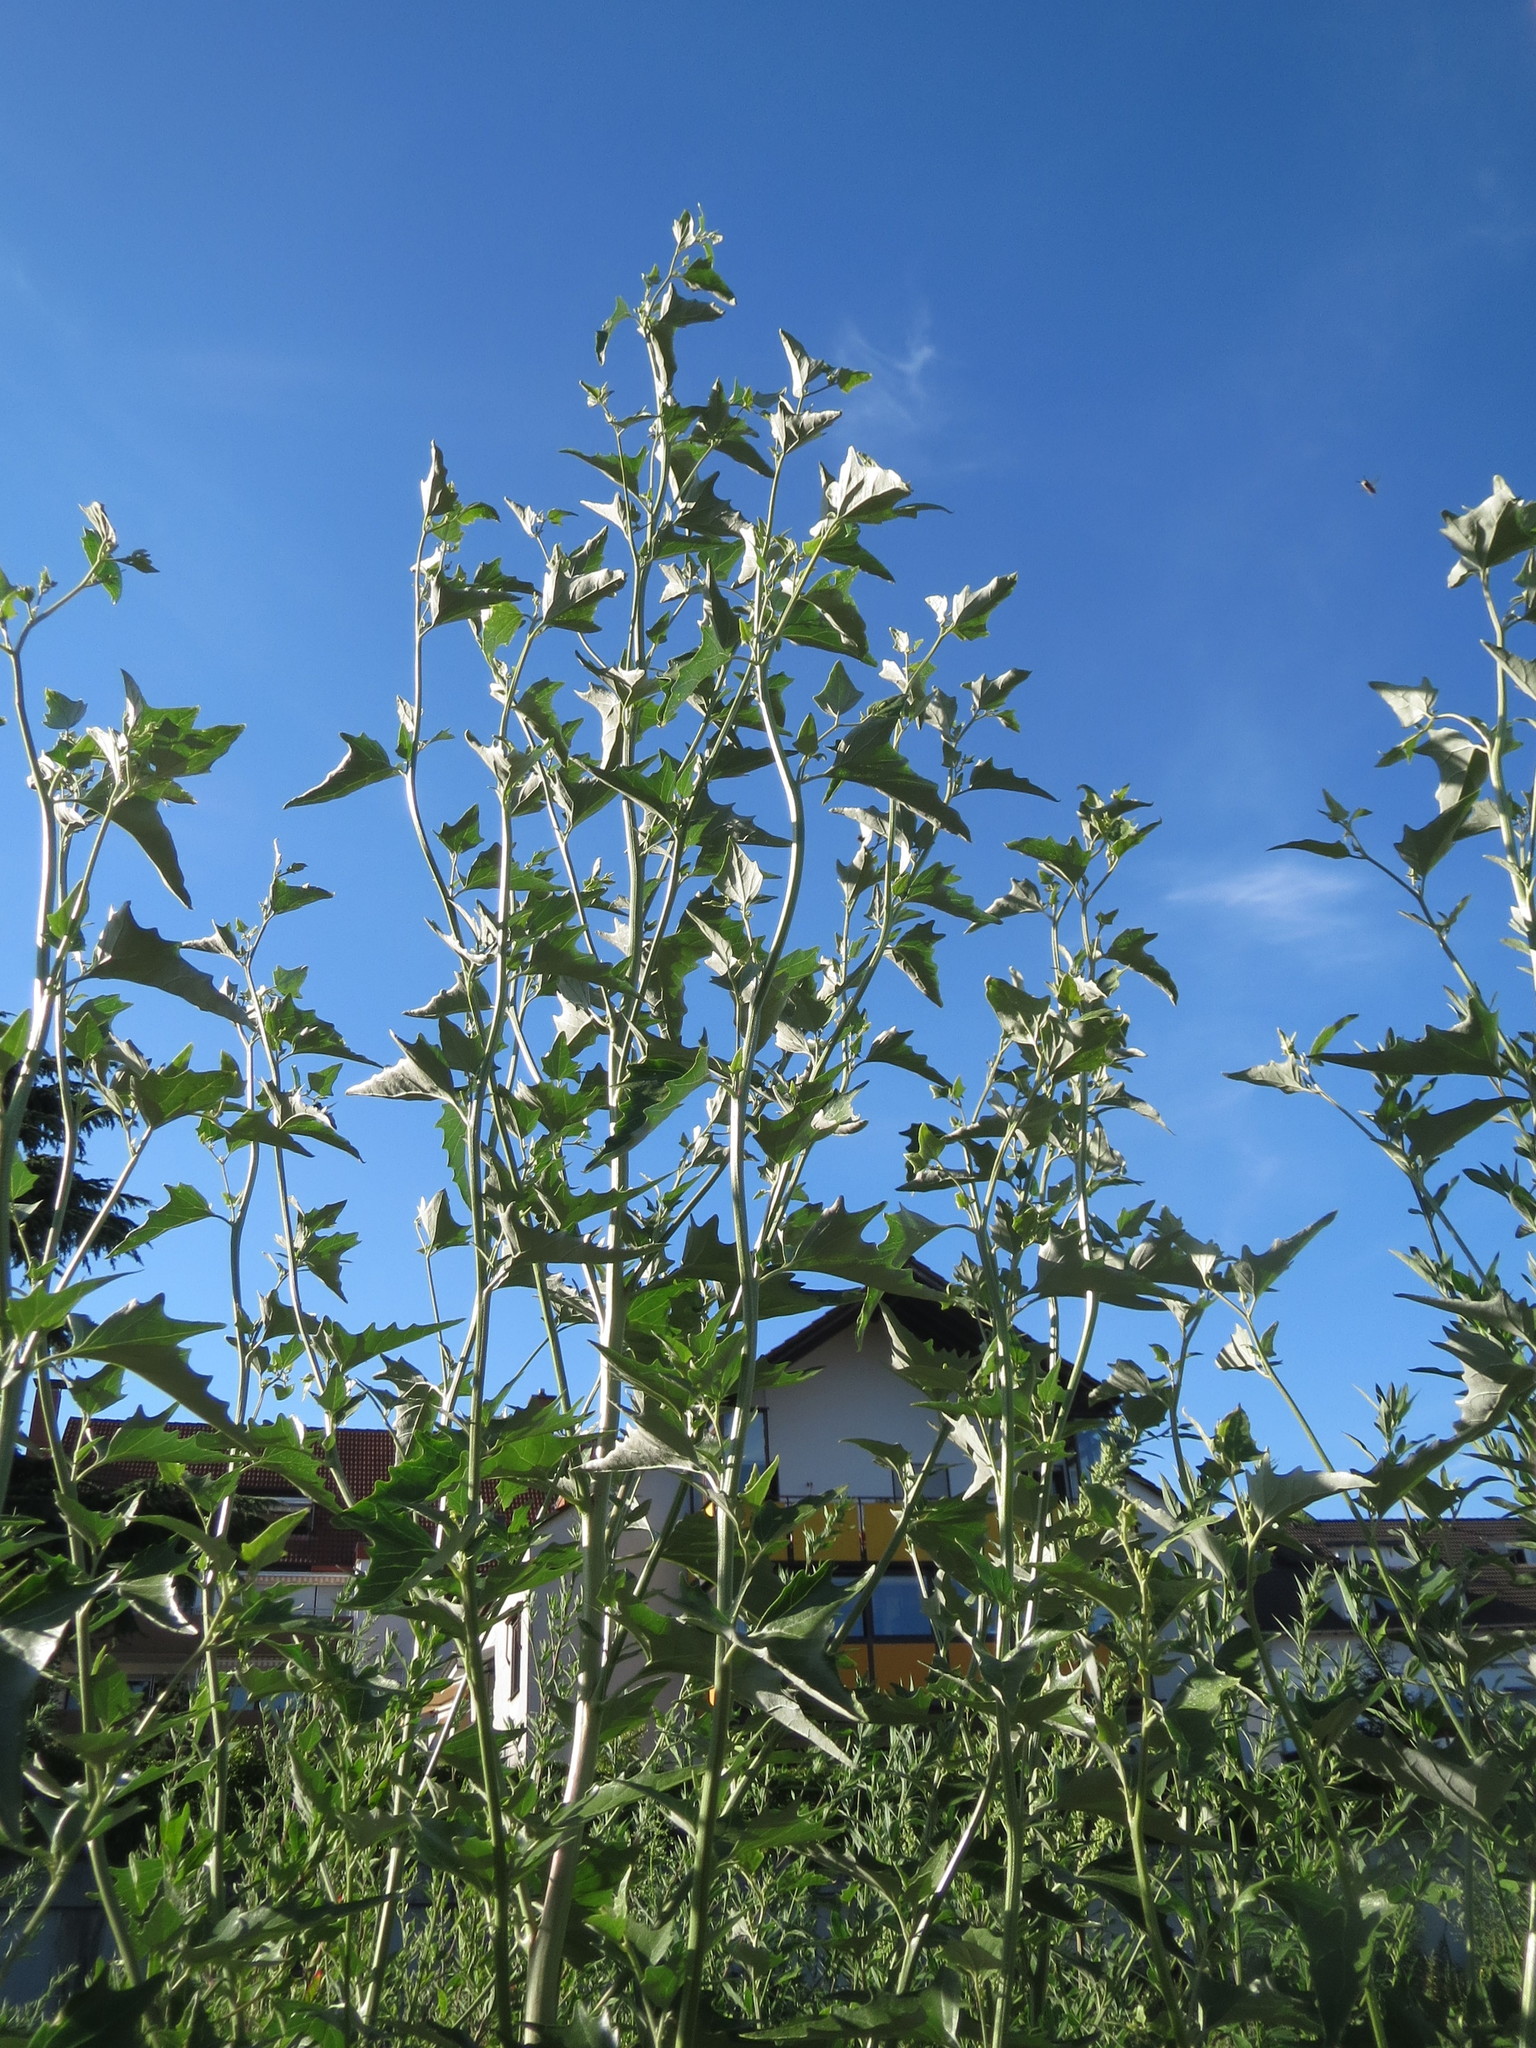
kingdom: Plantae
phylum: Tracheophyta
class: Magnoliopsida
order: Caryophyllales
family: Amaranthaceae
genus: Atriplex
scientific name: Atriplex sagittata
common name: Purple orache
